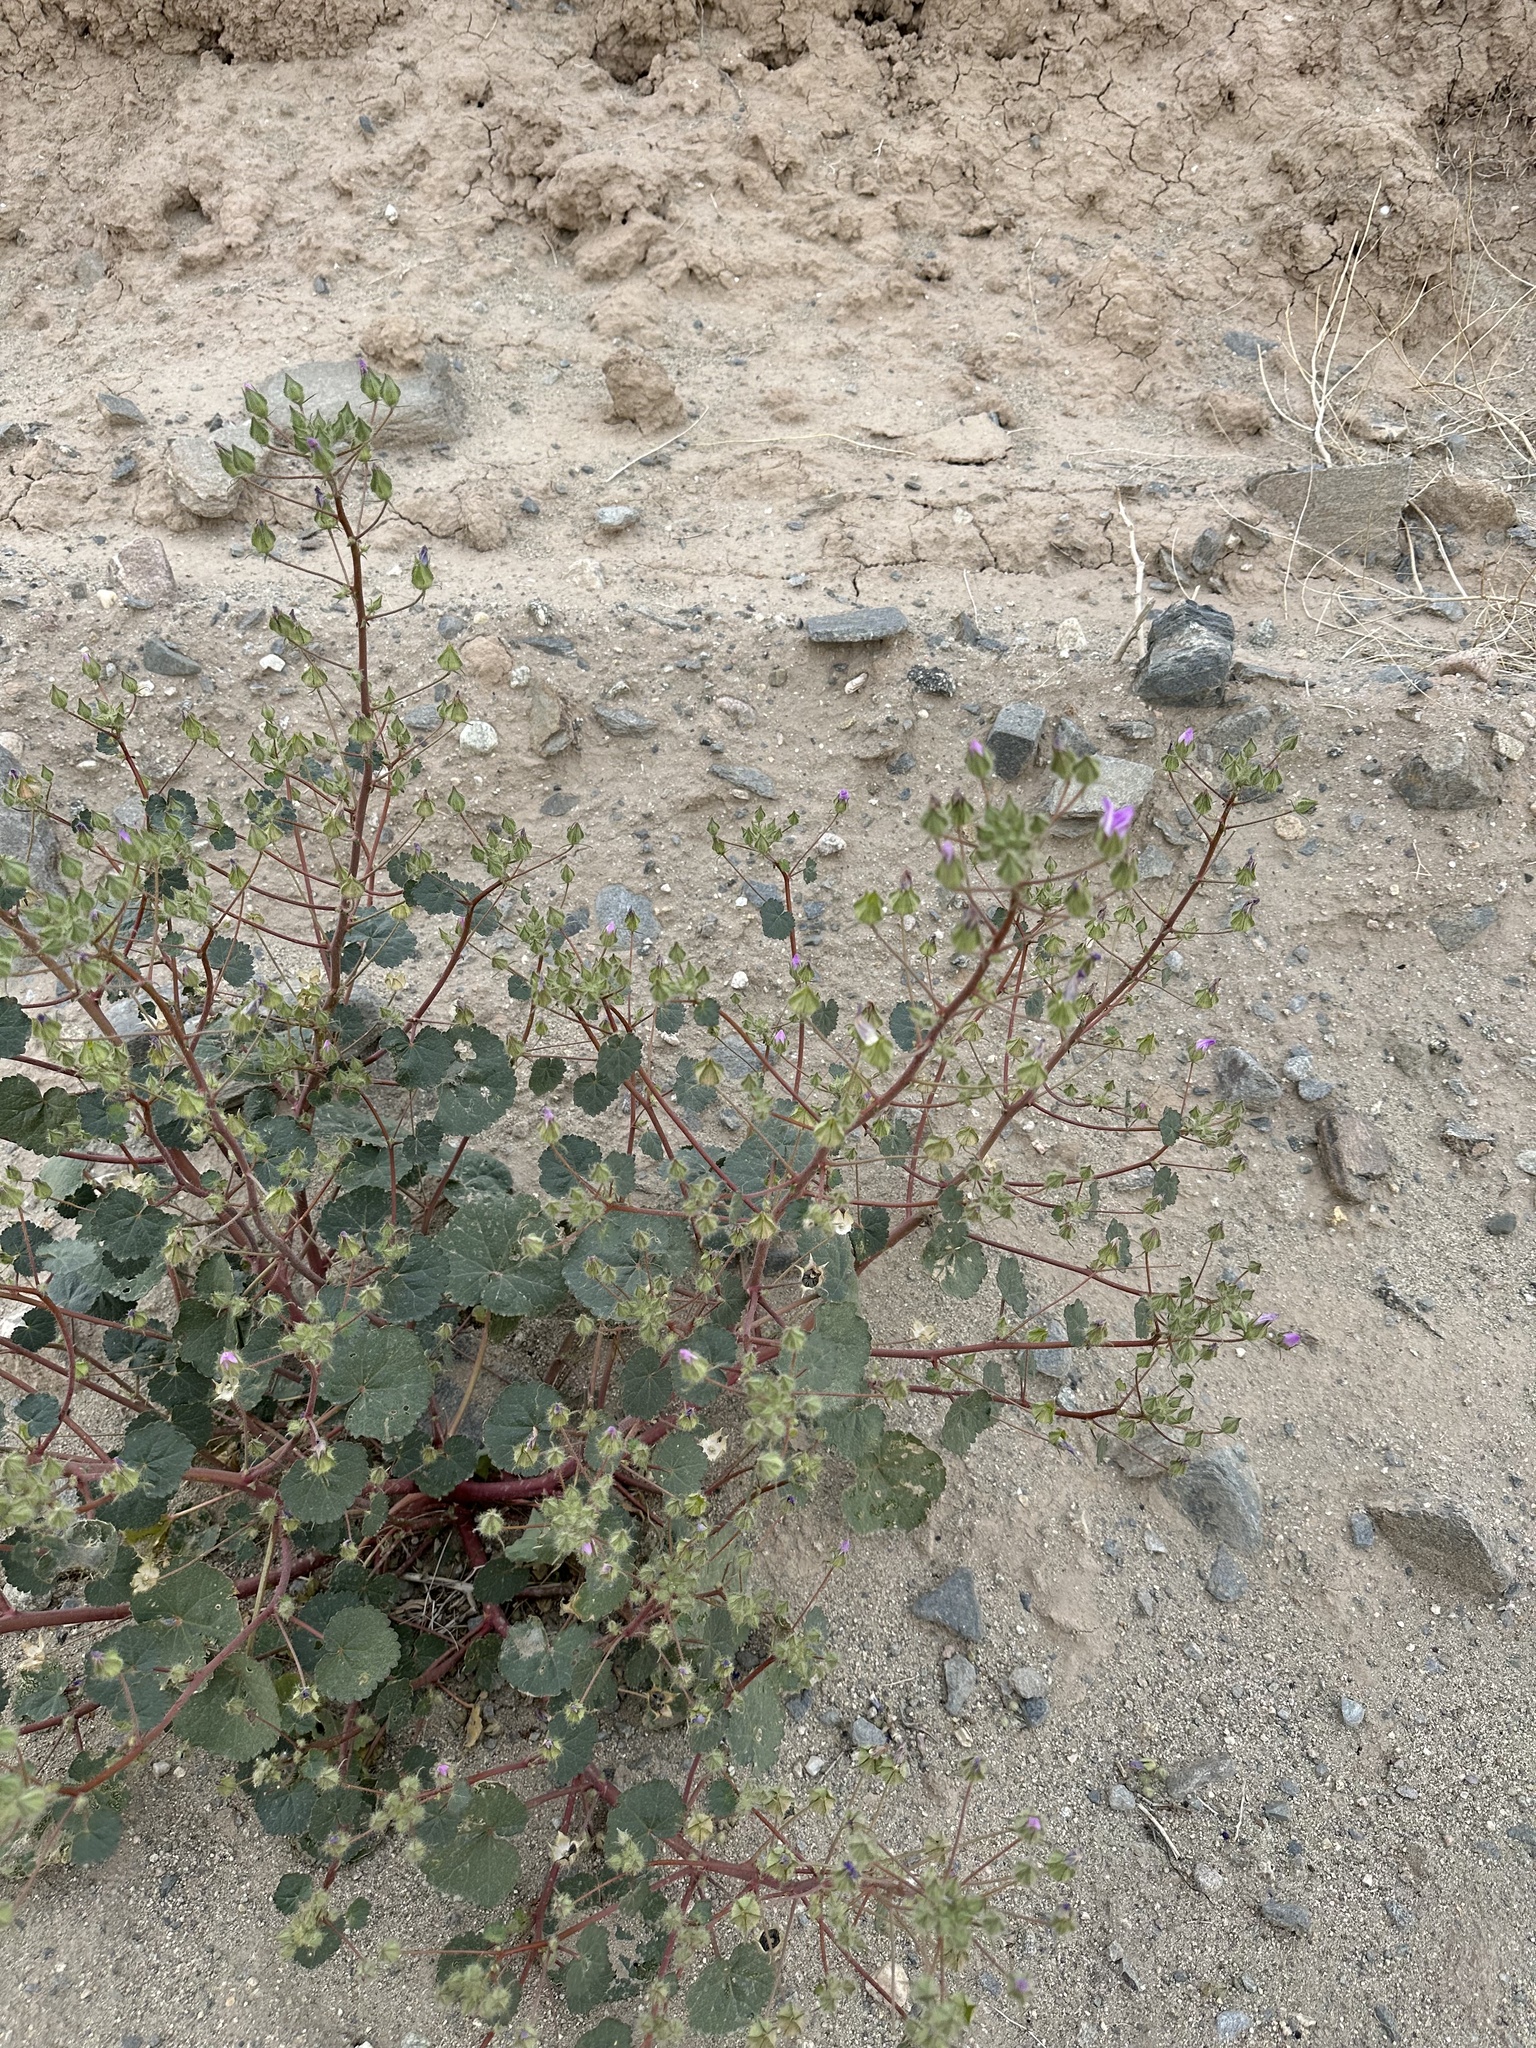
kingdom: Plantae
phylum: Tracheophyta
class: Magnoliopsida
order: Malvales
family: Malvaceae
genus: Eremalche
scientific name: Eremalche rotundifolia
